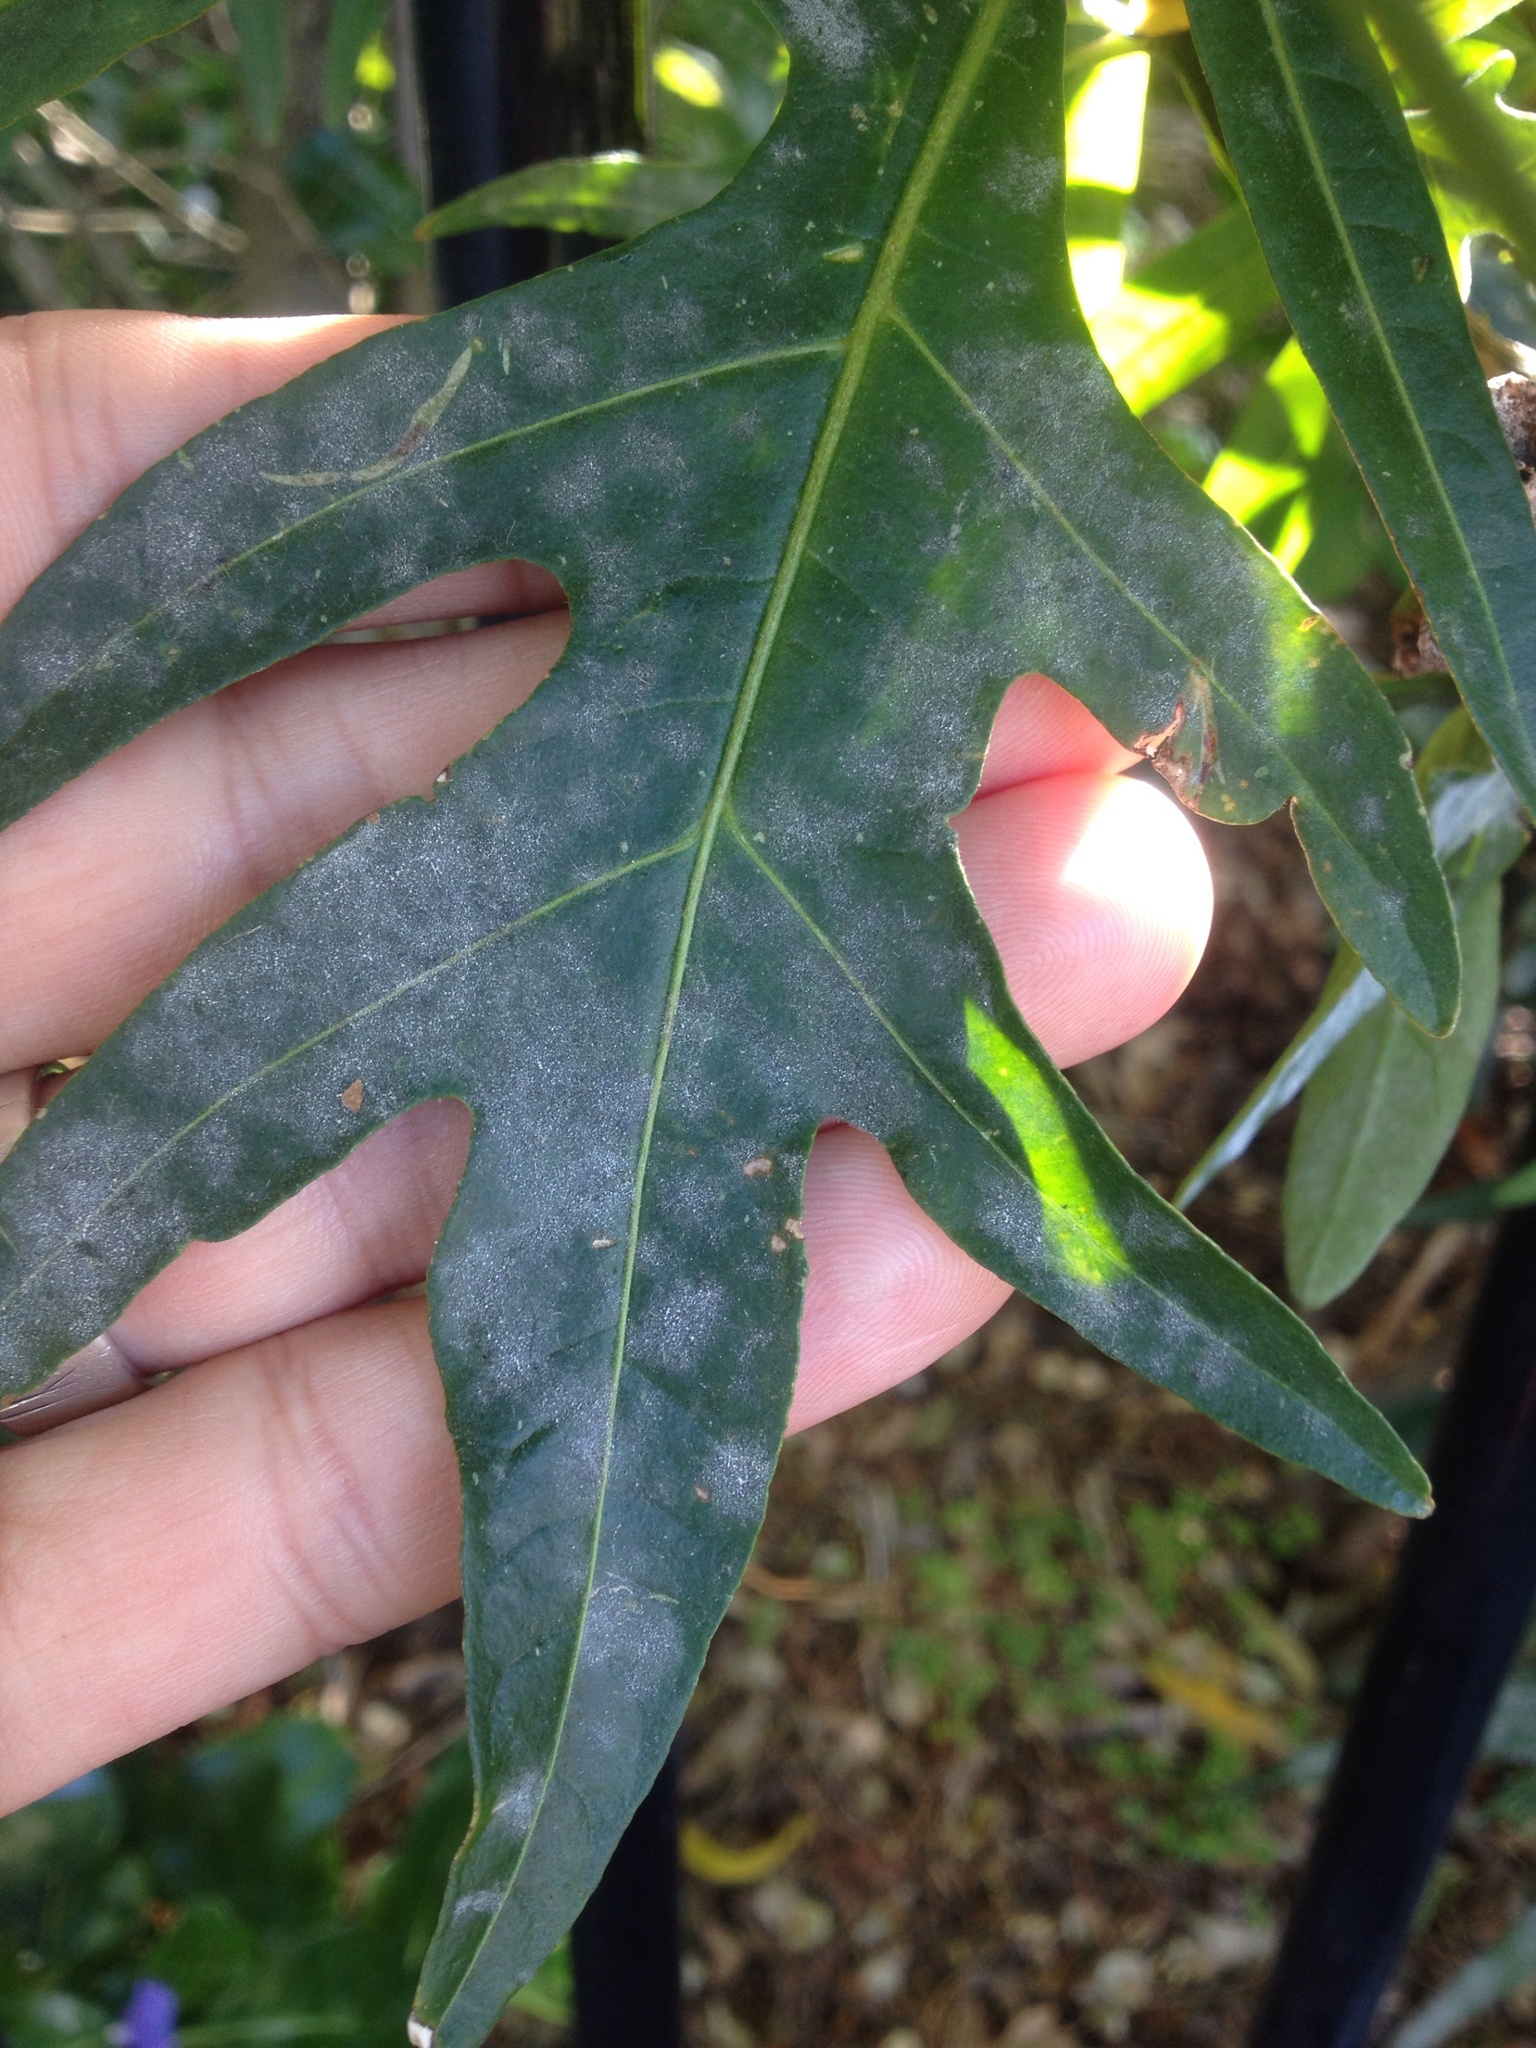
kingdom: Fungi
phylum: Ascomycota
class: Leotiomycetes
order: Helotiales
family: Erysiphaceae
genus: Golovinomyces
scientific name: Golovinomyces longipes
